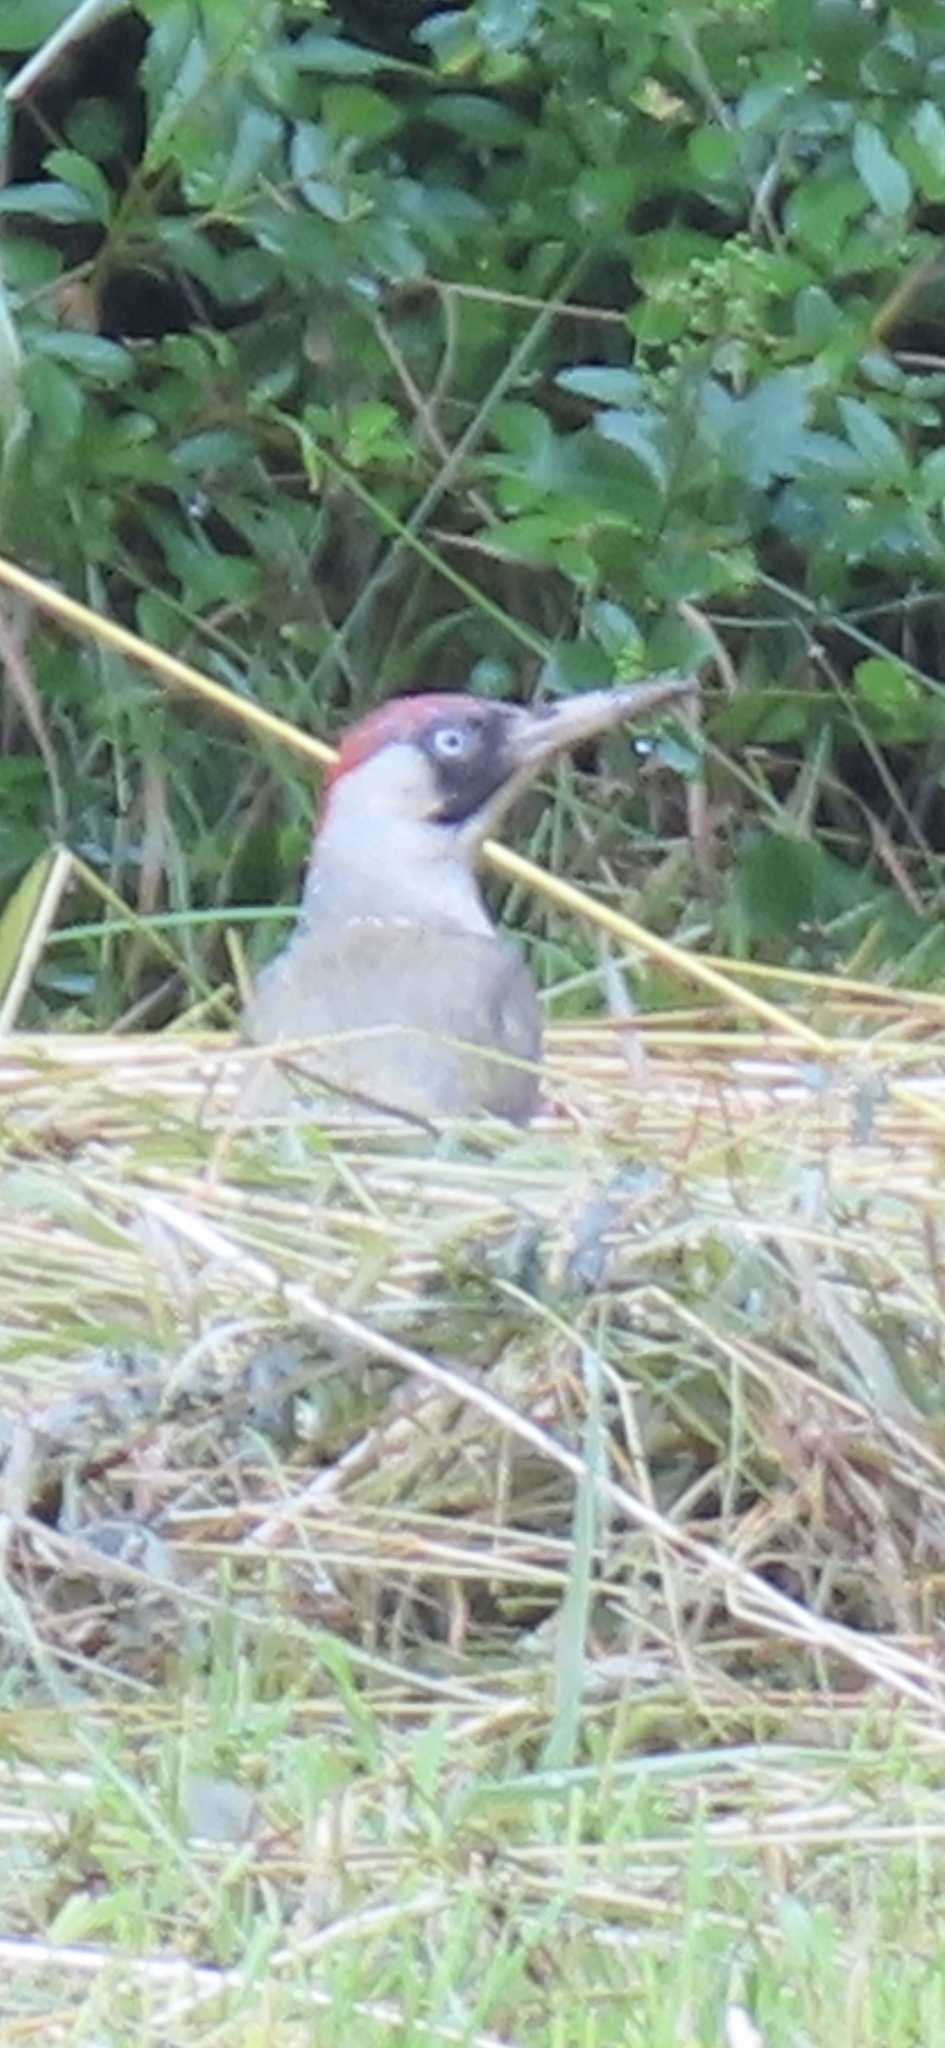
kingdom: Animalia
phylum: Chordata
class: Aves
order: Piciformes
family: Picidae
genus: Picus
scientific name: Picus viridis
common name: European green woodpecker
